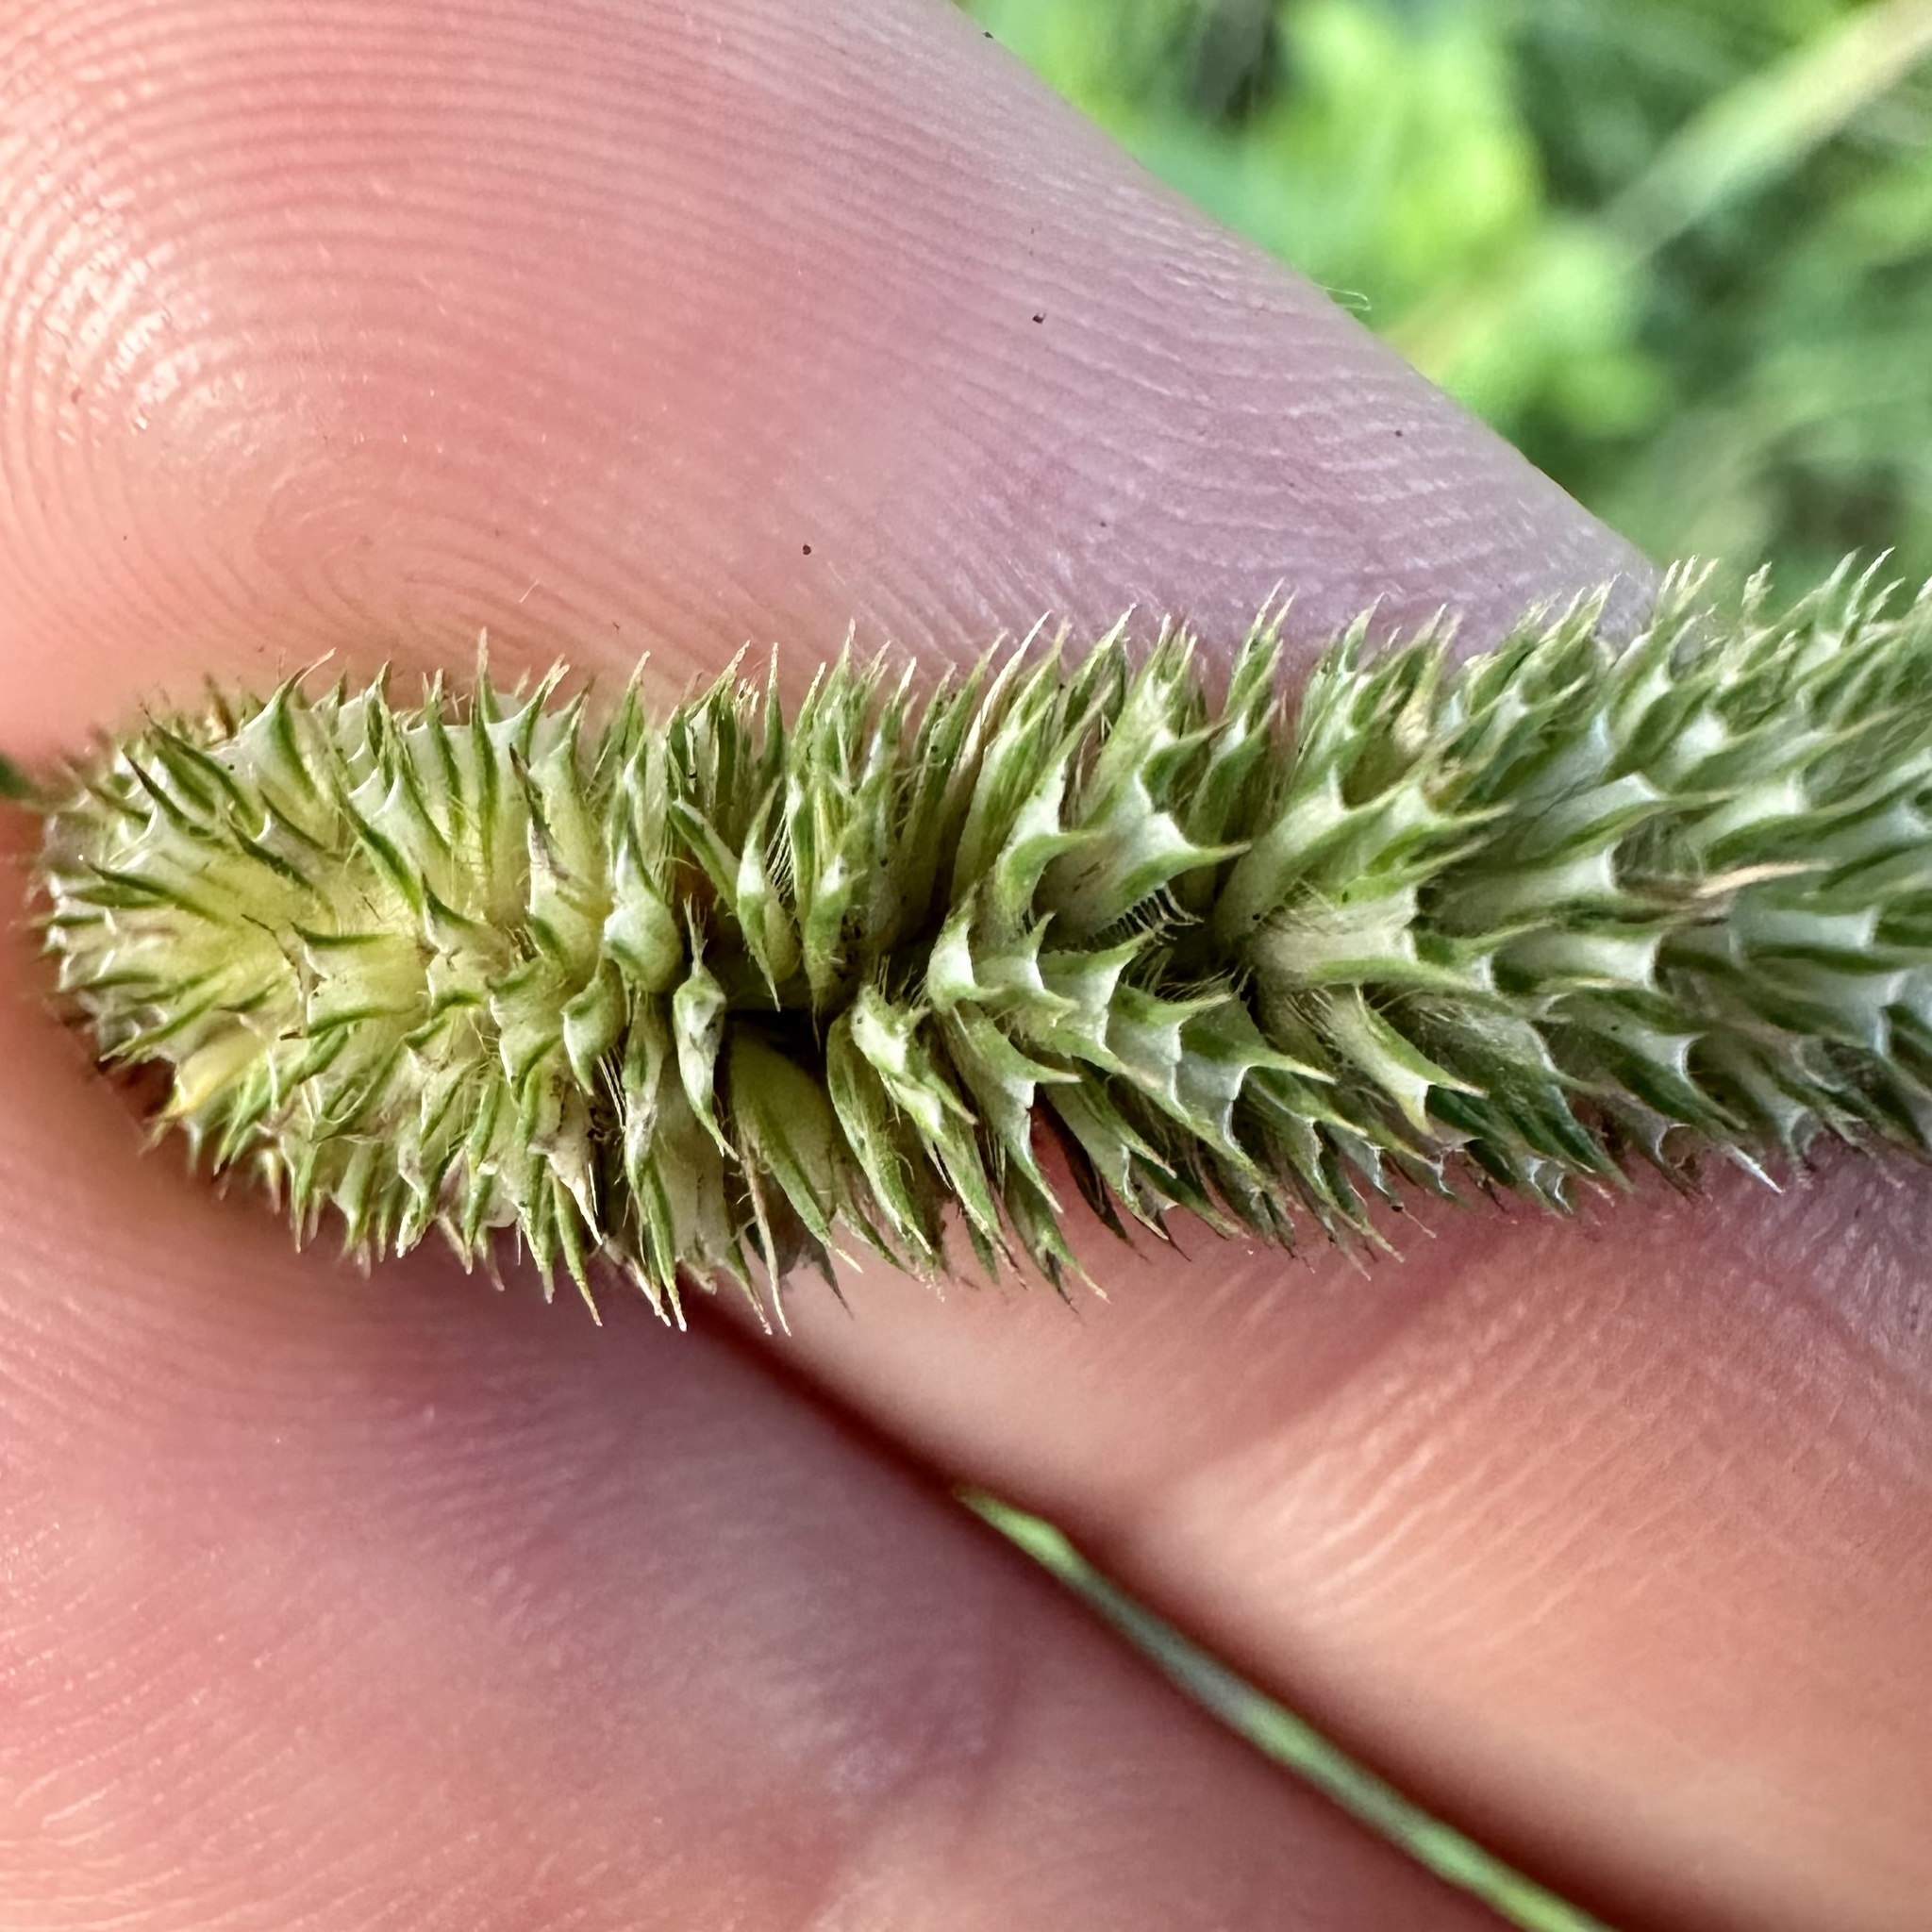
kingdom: Plantae
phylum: Tracheophyta
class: Liliopsida
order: Poales
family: Poaceae
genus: Phleum
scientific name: Phleum pratense
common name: Timothy grass
